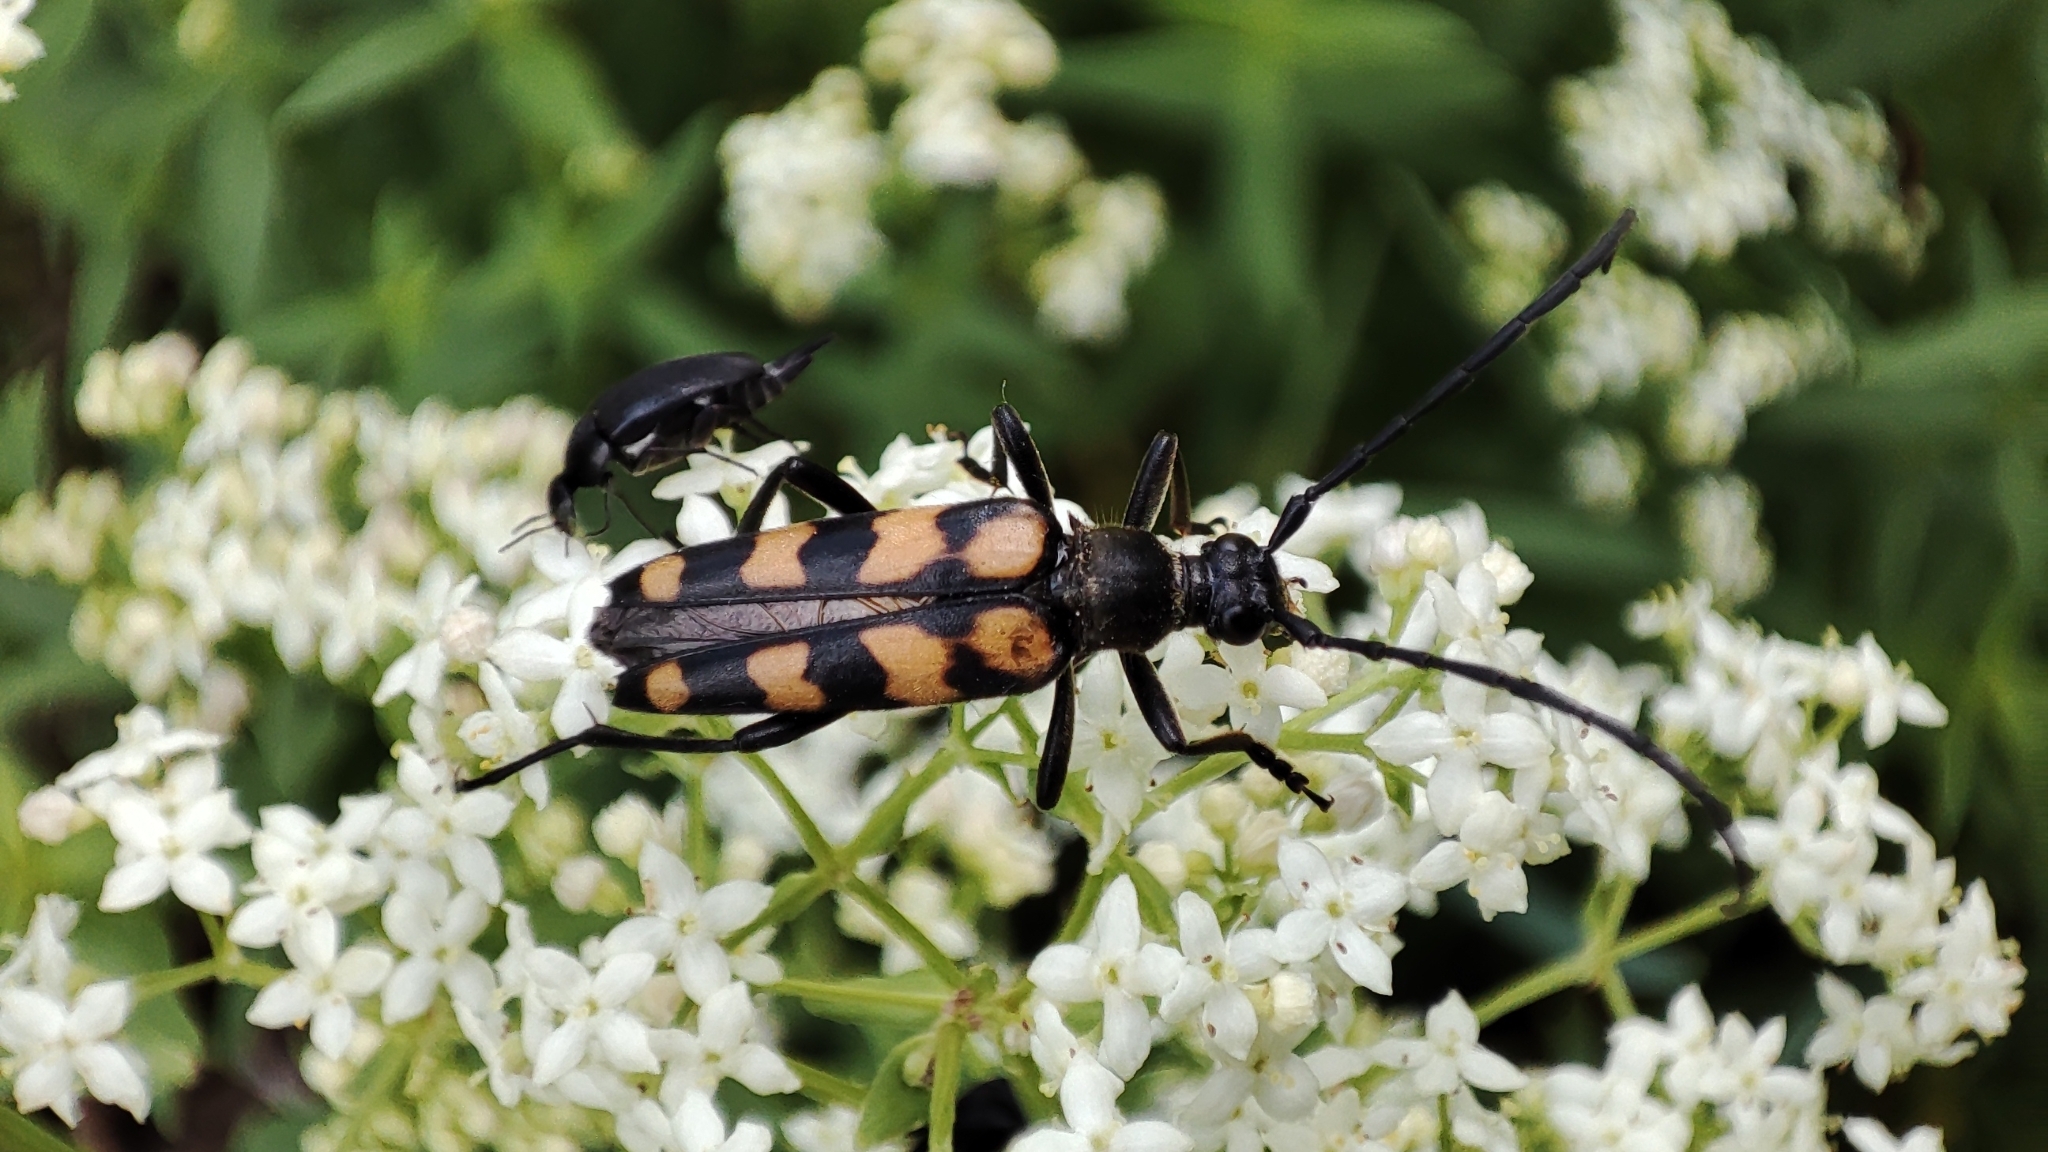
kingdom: Animalia
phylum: Arthropoda
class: Insecta
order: Coleoptera
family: Cerambycidae
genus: Leptura
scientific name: Leptura quadrifasciata
